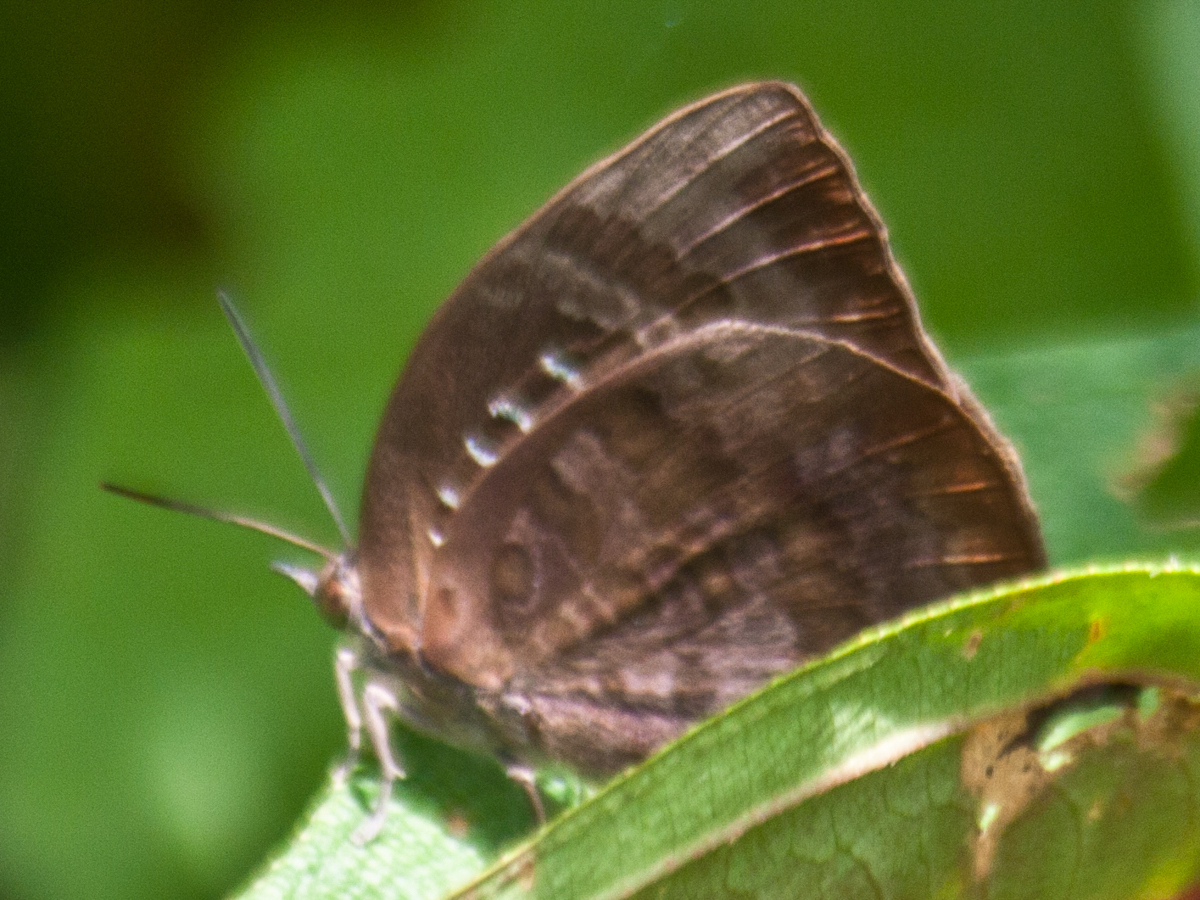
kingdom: Animalia
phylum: Arthropoda
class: Insecta
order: Lepidoptera
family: Lycaenidae
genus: Arhopala
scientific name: Arhopala centaurus
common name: Dull oak-blue
